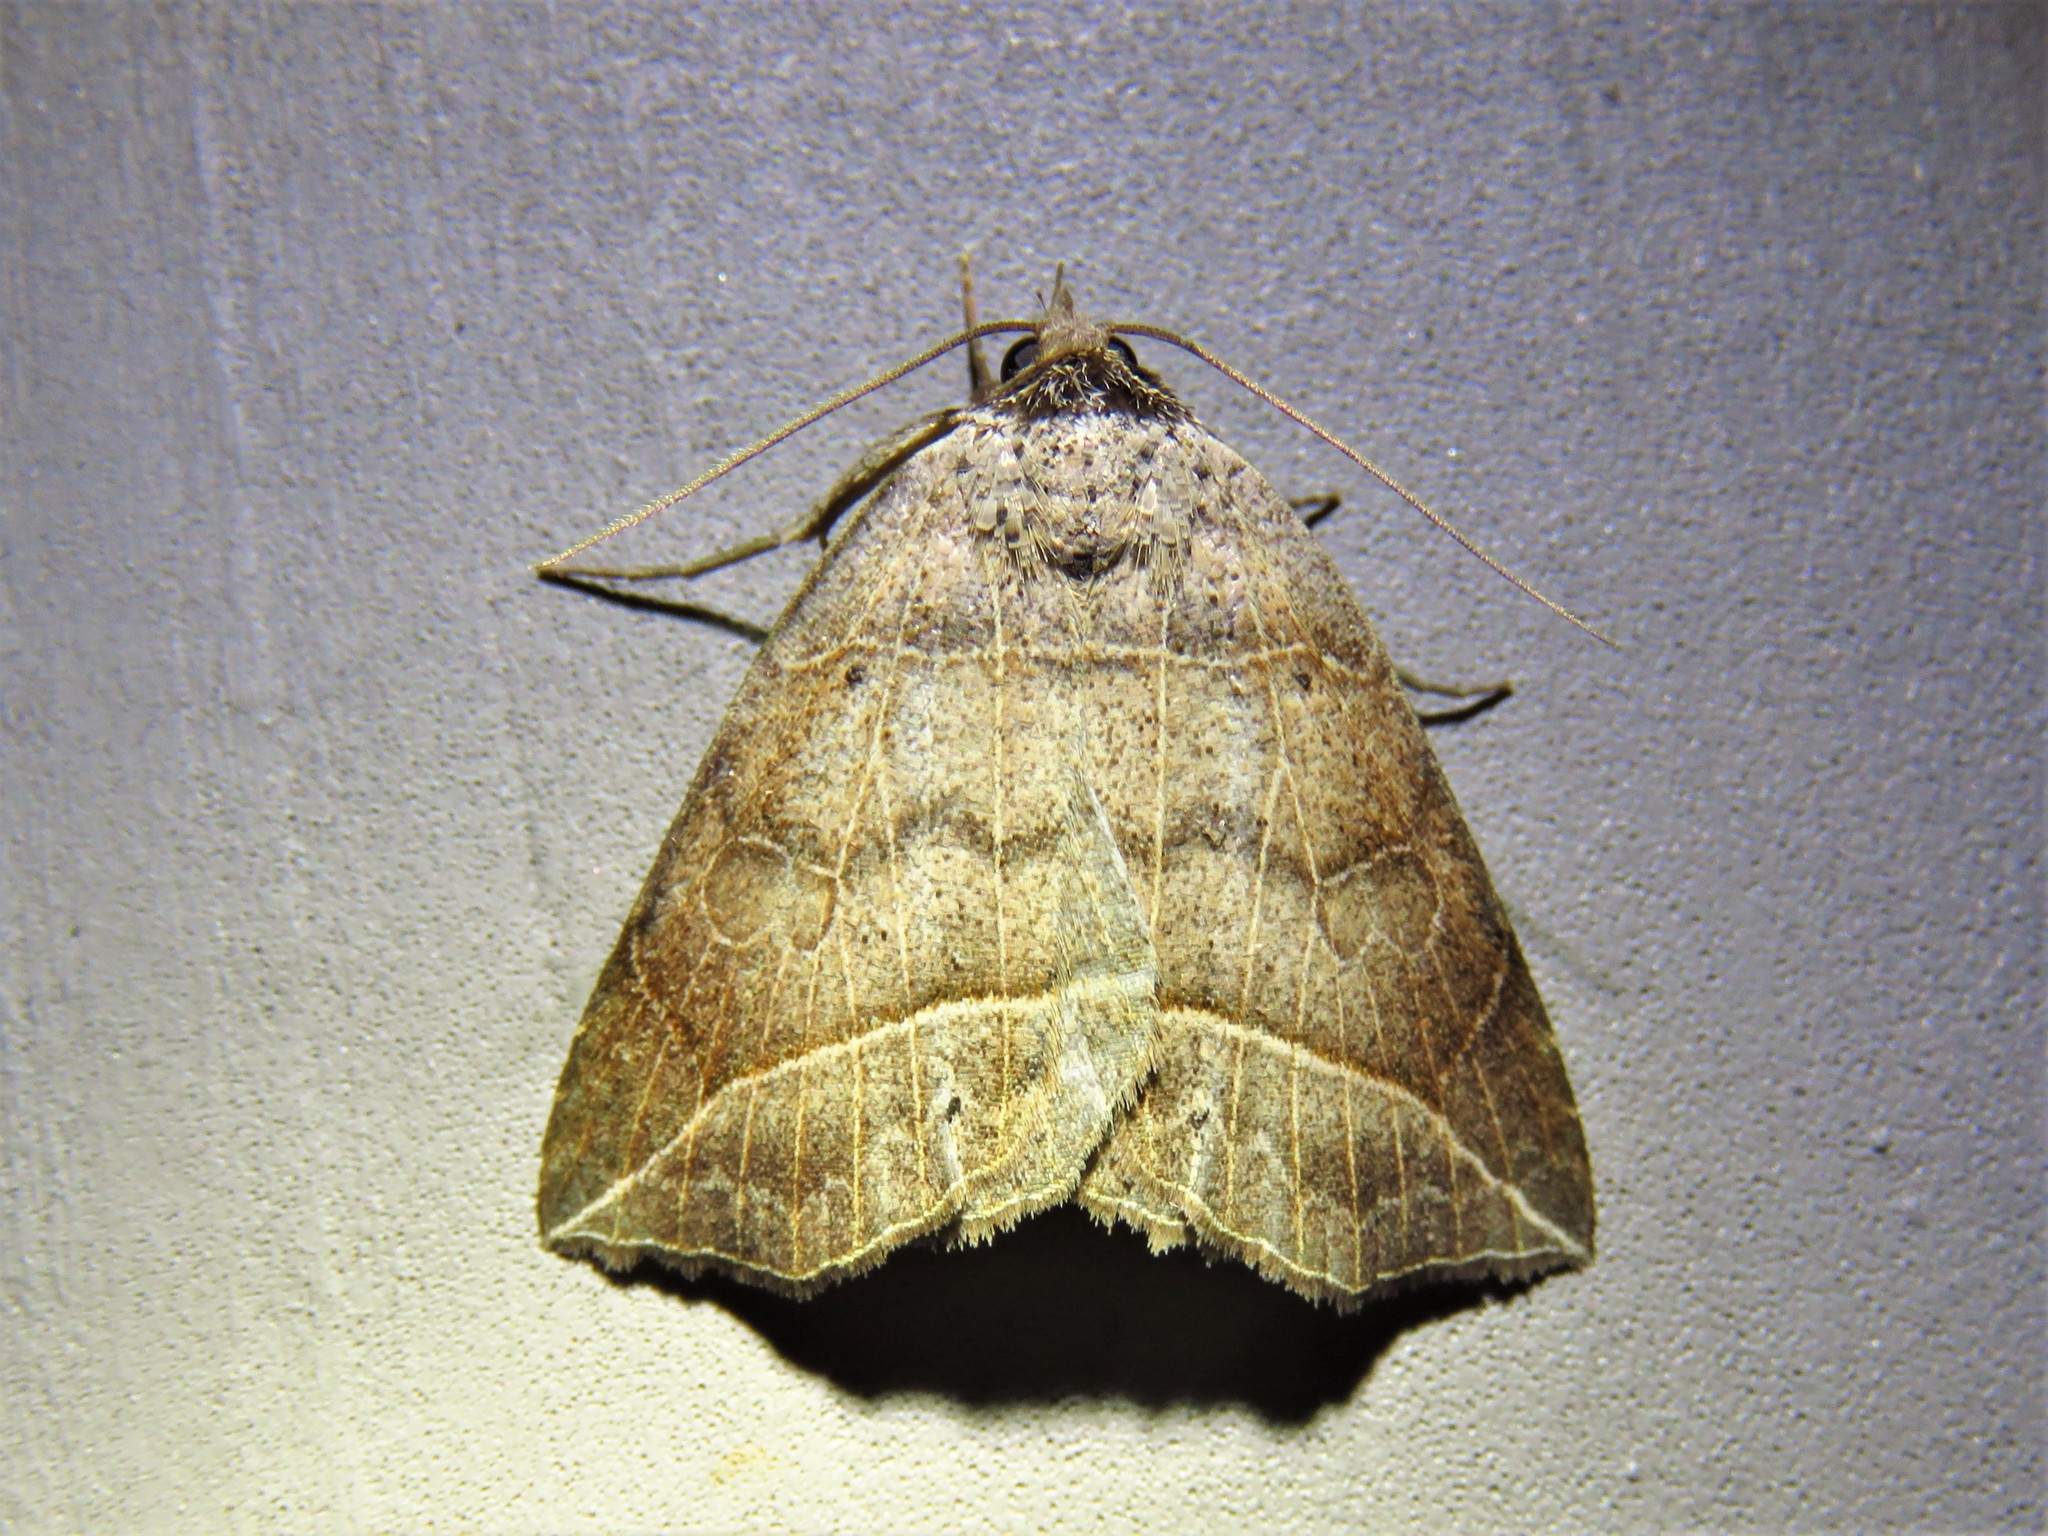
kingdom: Animalia
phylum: Arthropoda
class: Insecta
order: Lepidoptera
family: Erebidae
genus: Isogona
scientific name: Isogona tenuis
